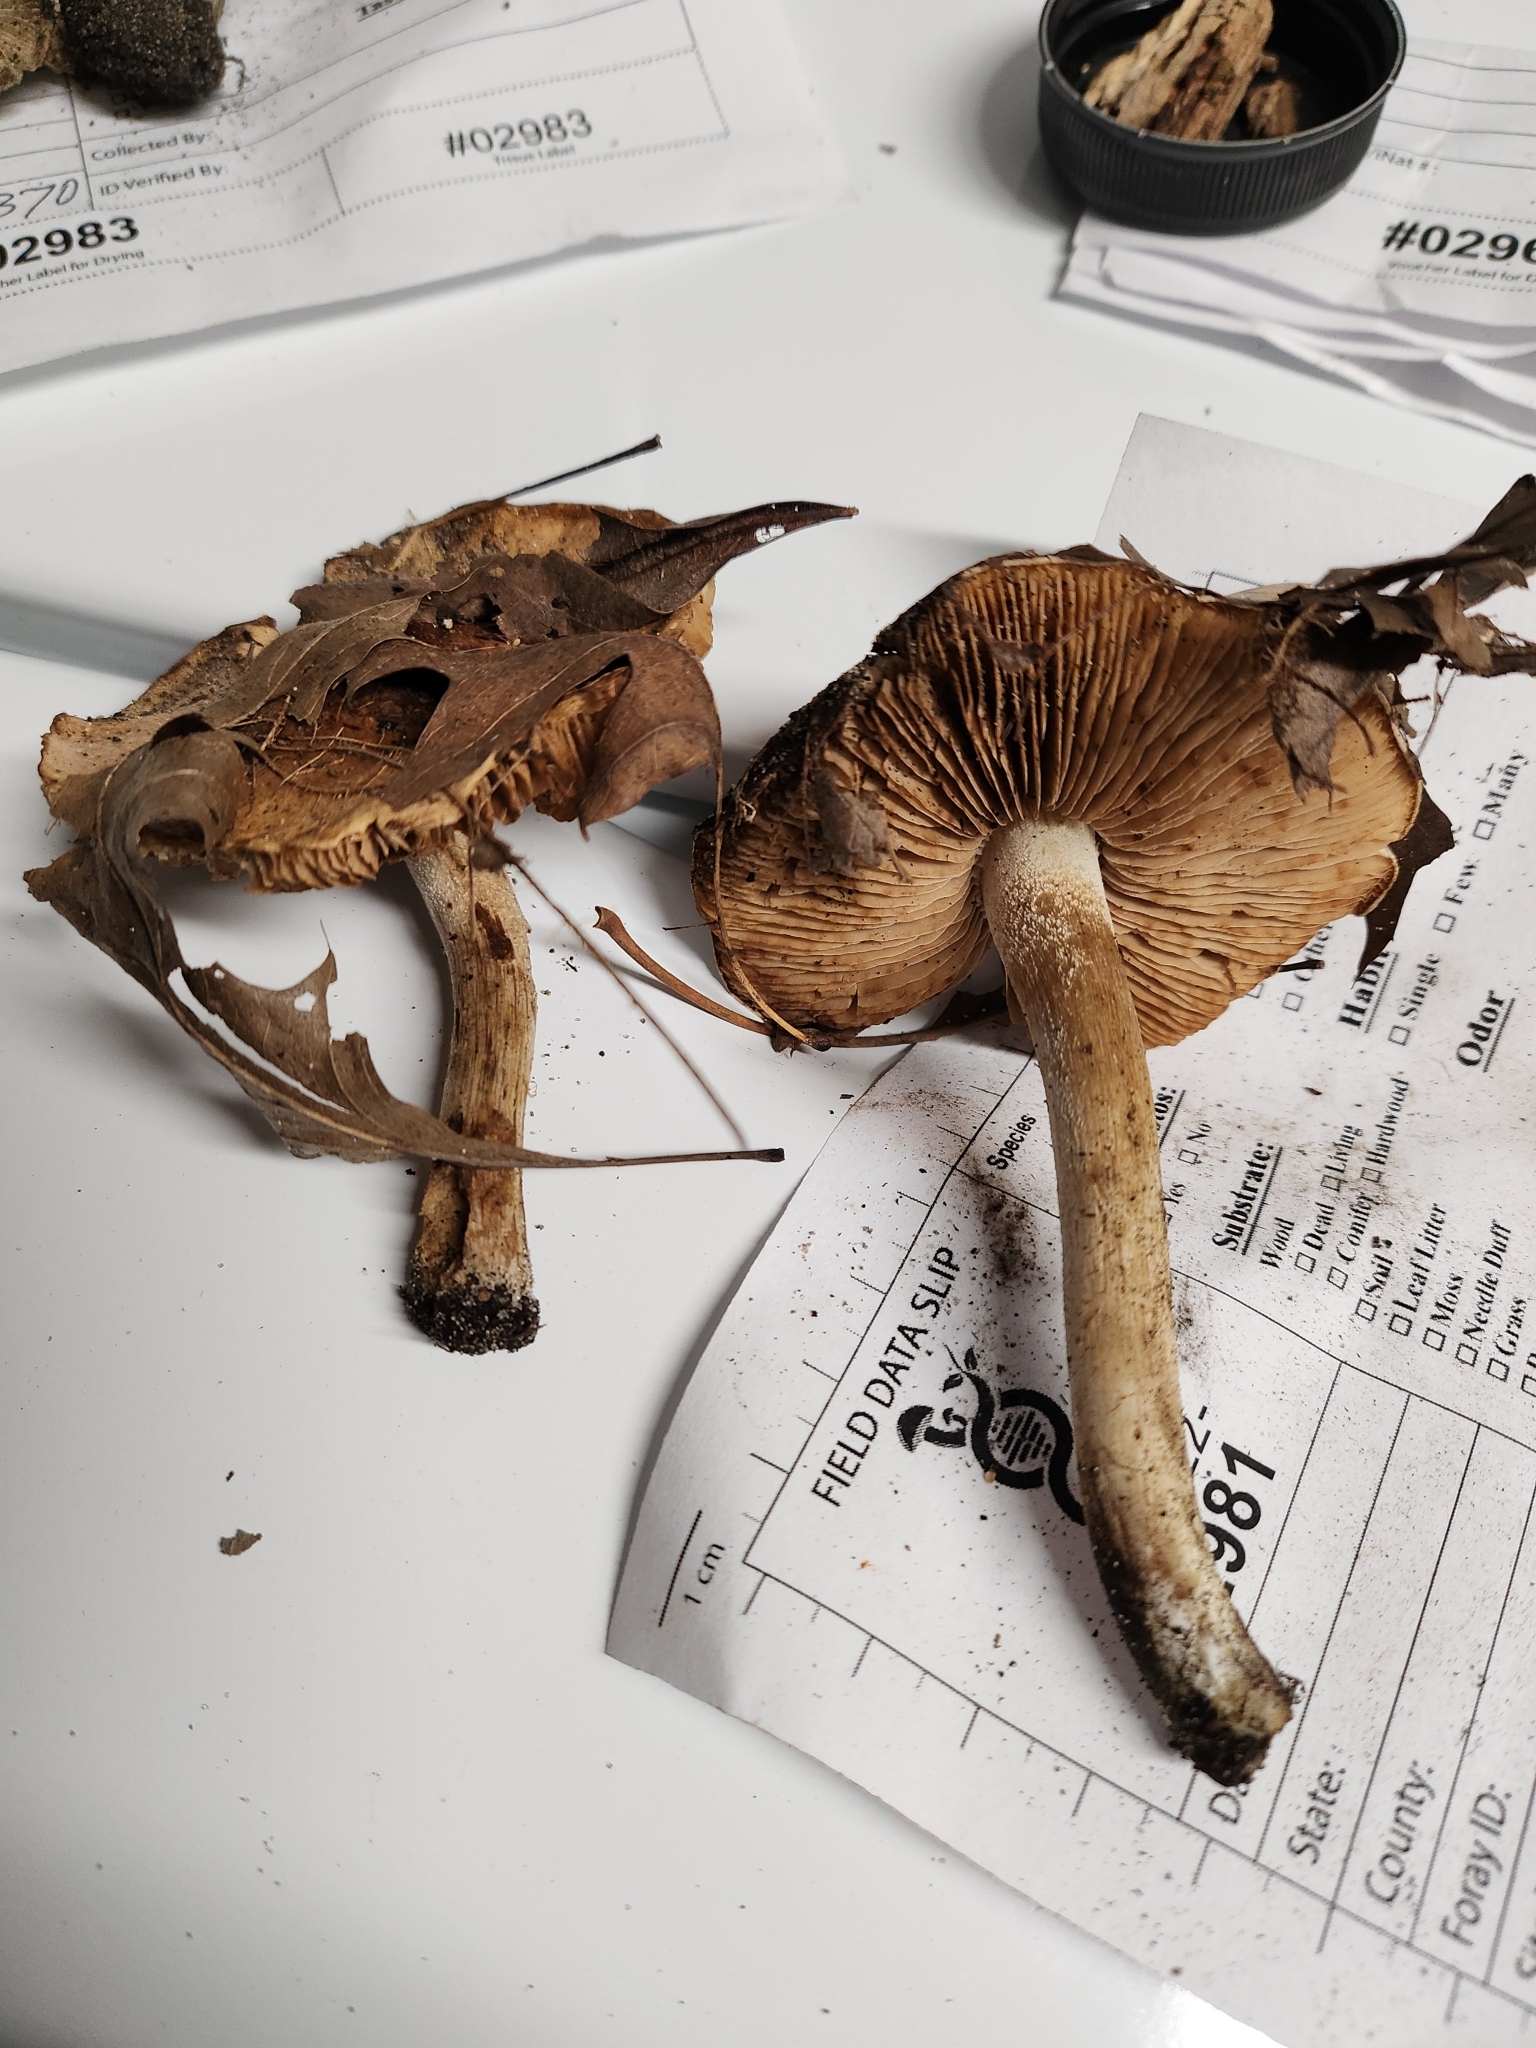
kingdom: Fungi
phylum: Basidiomycota
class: Agaricomycetes
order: Agaricales
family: Hymenogastraceae
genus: Hebeloma
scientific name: Hebeloma sordidum
